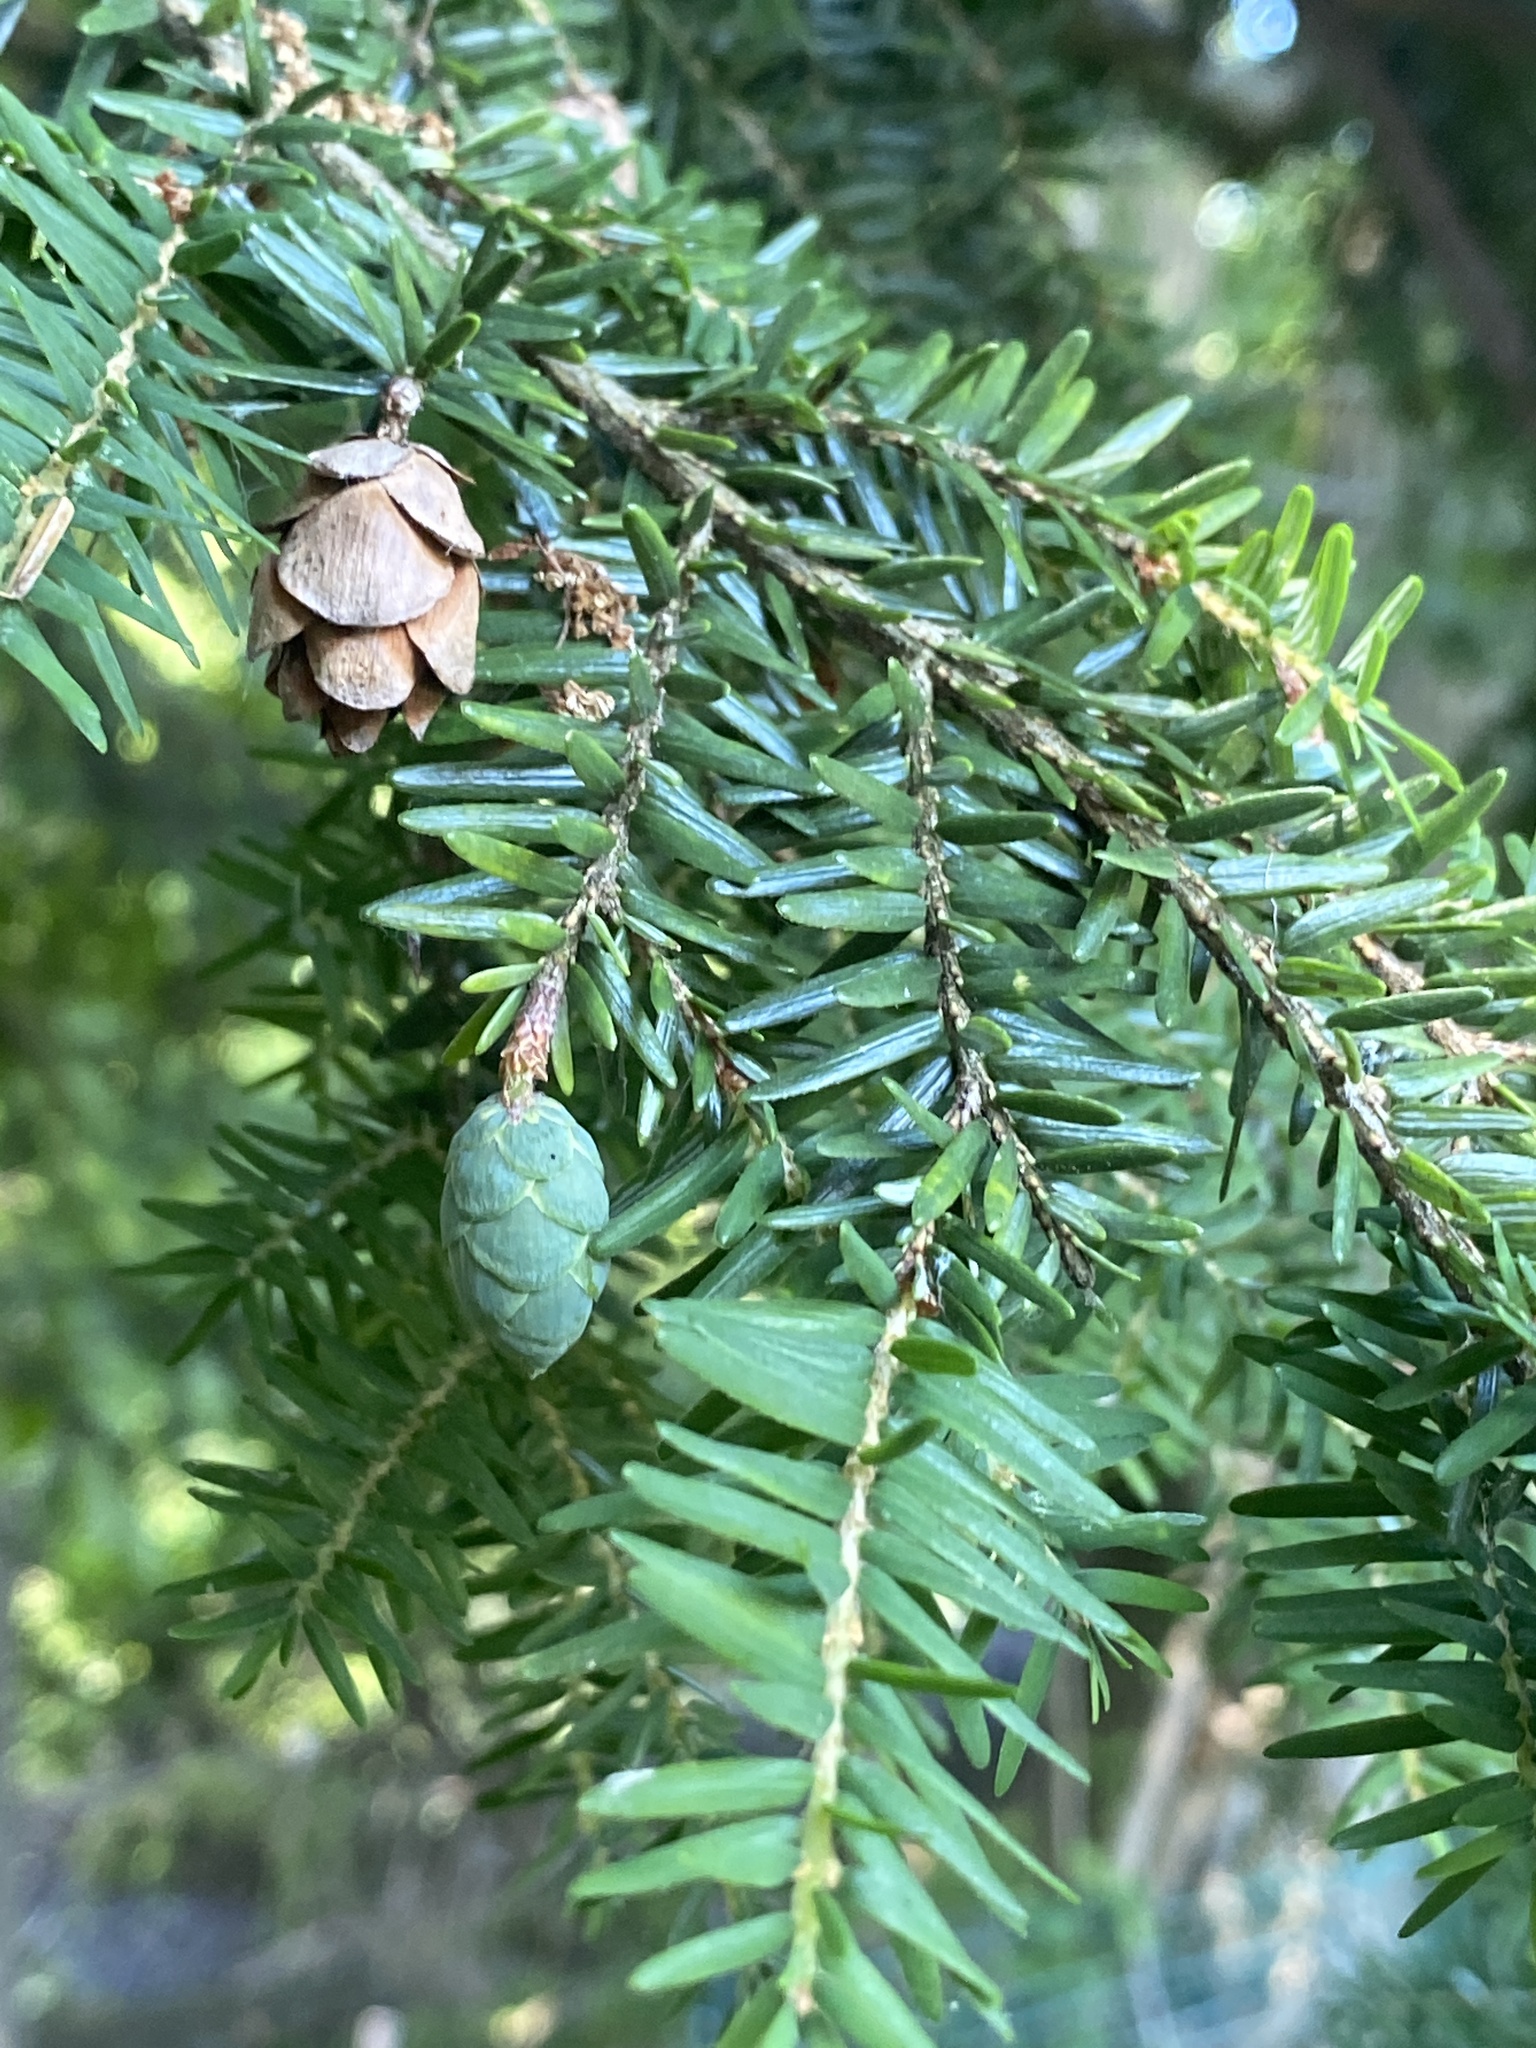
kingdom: Plantae
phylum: Tracheophyta
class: Pinopsida
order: Pinales
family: Pinaceae
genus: Tsuga
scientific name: Tsuga canadensis
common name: Eastern hemlock
